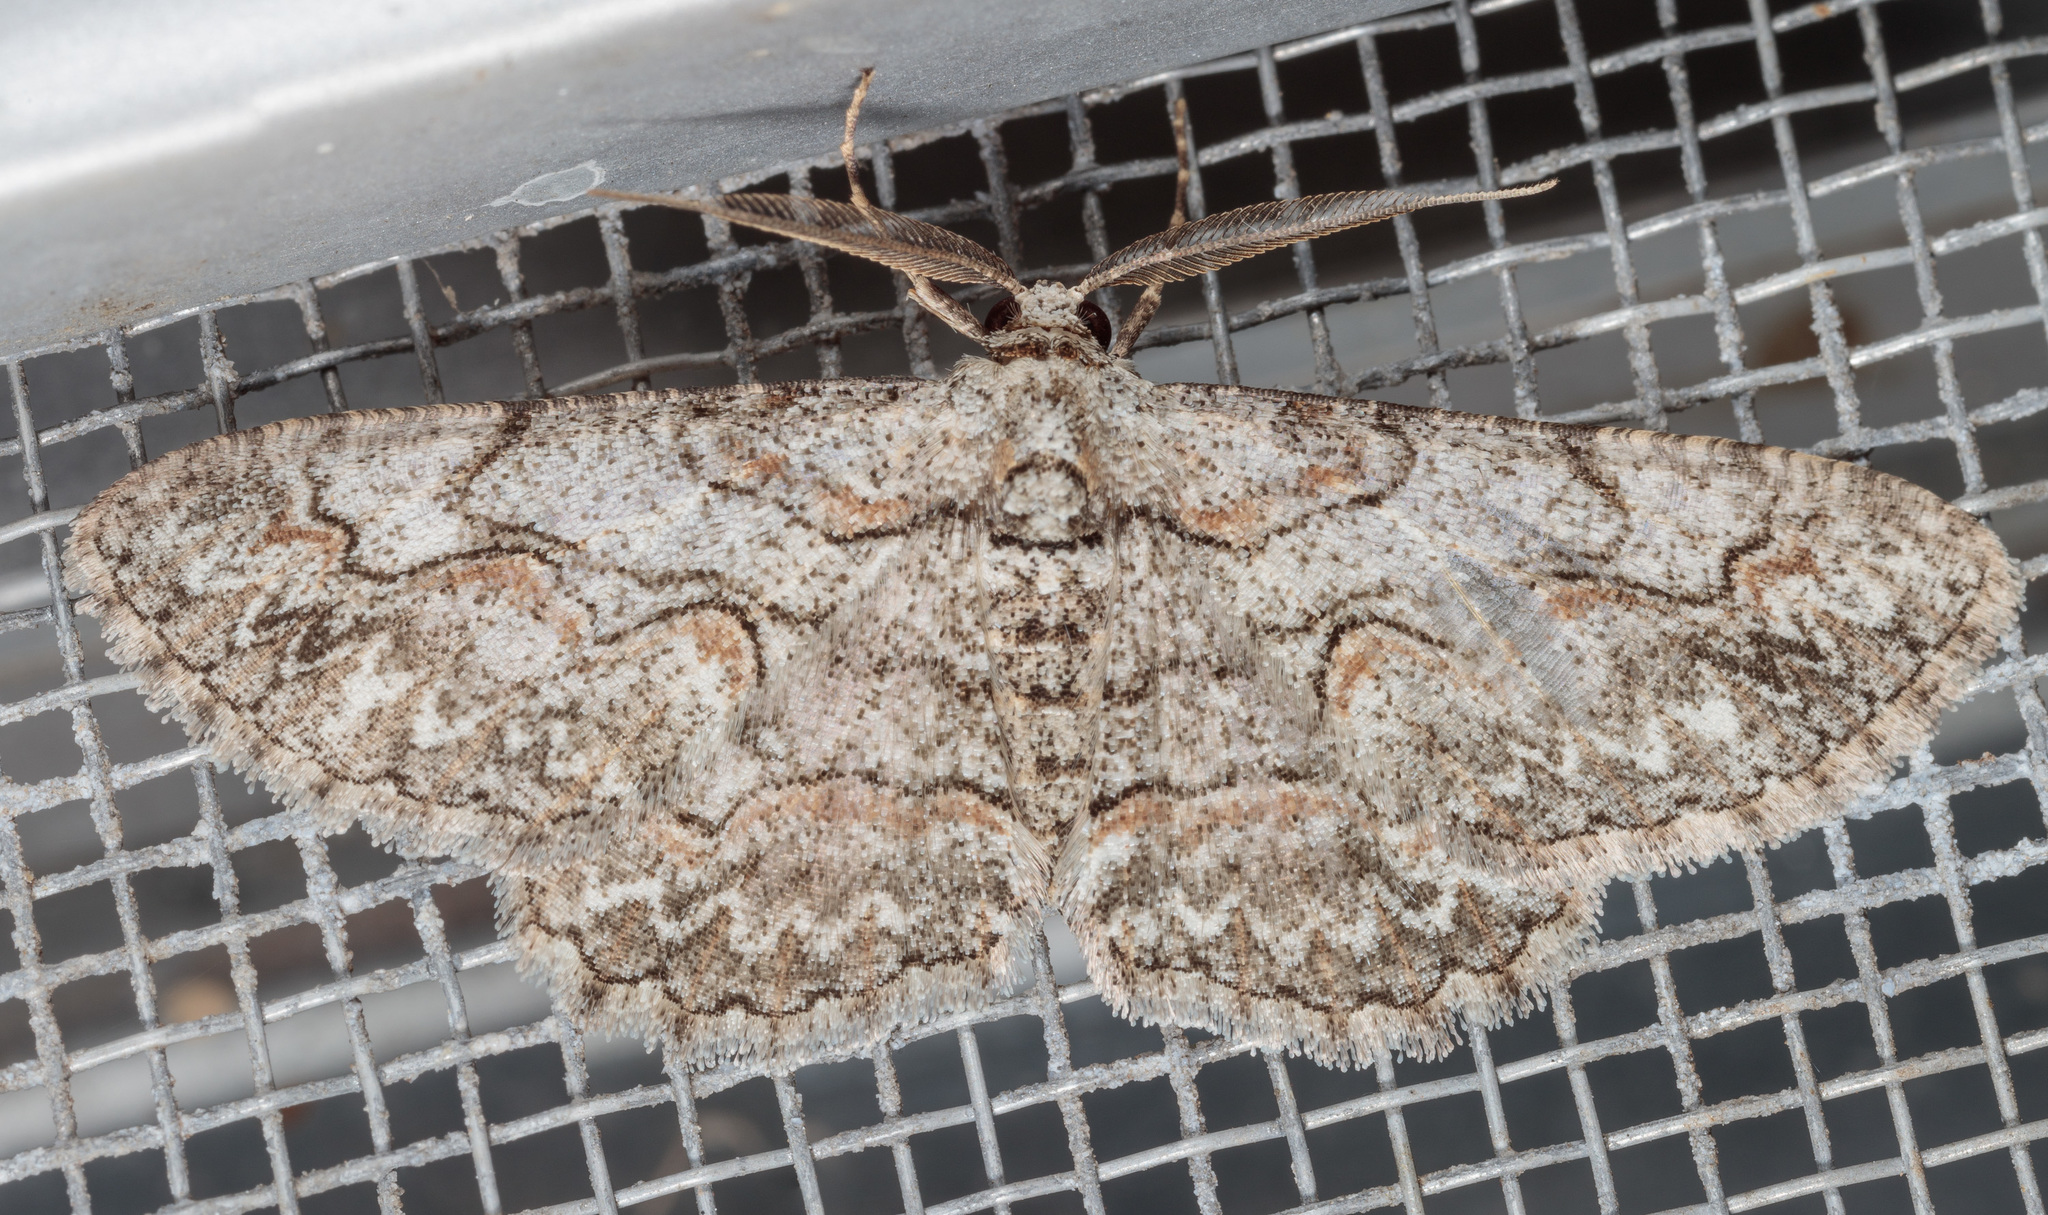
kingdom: Animalia
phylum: Arthropoda
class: Insecta
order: Lepidoptera
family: Geometridae
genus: Iridopsis
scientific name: Iridopsis defectaria
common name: Brown-shaded gray
